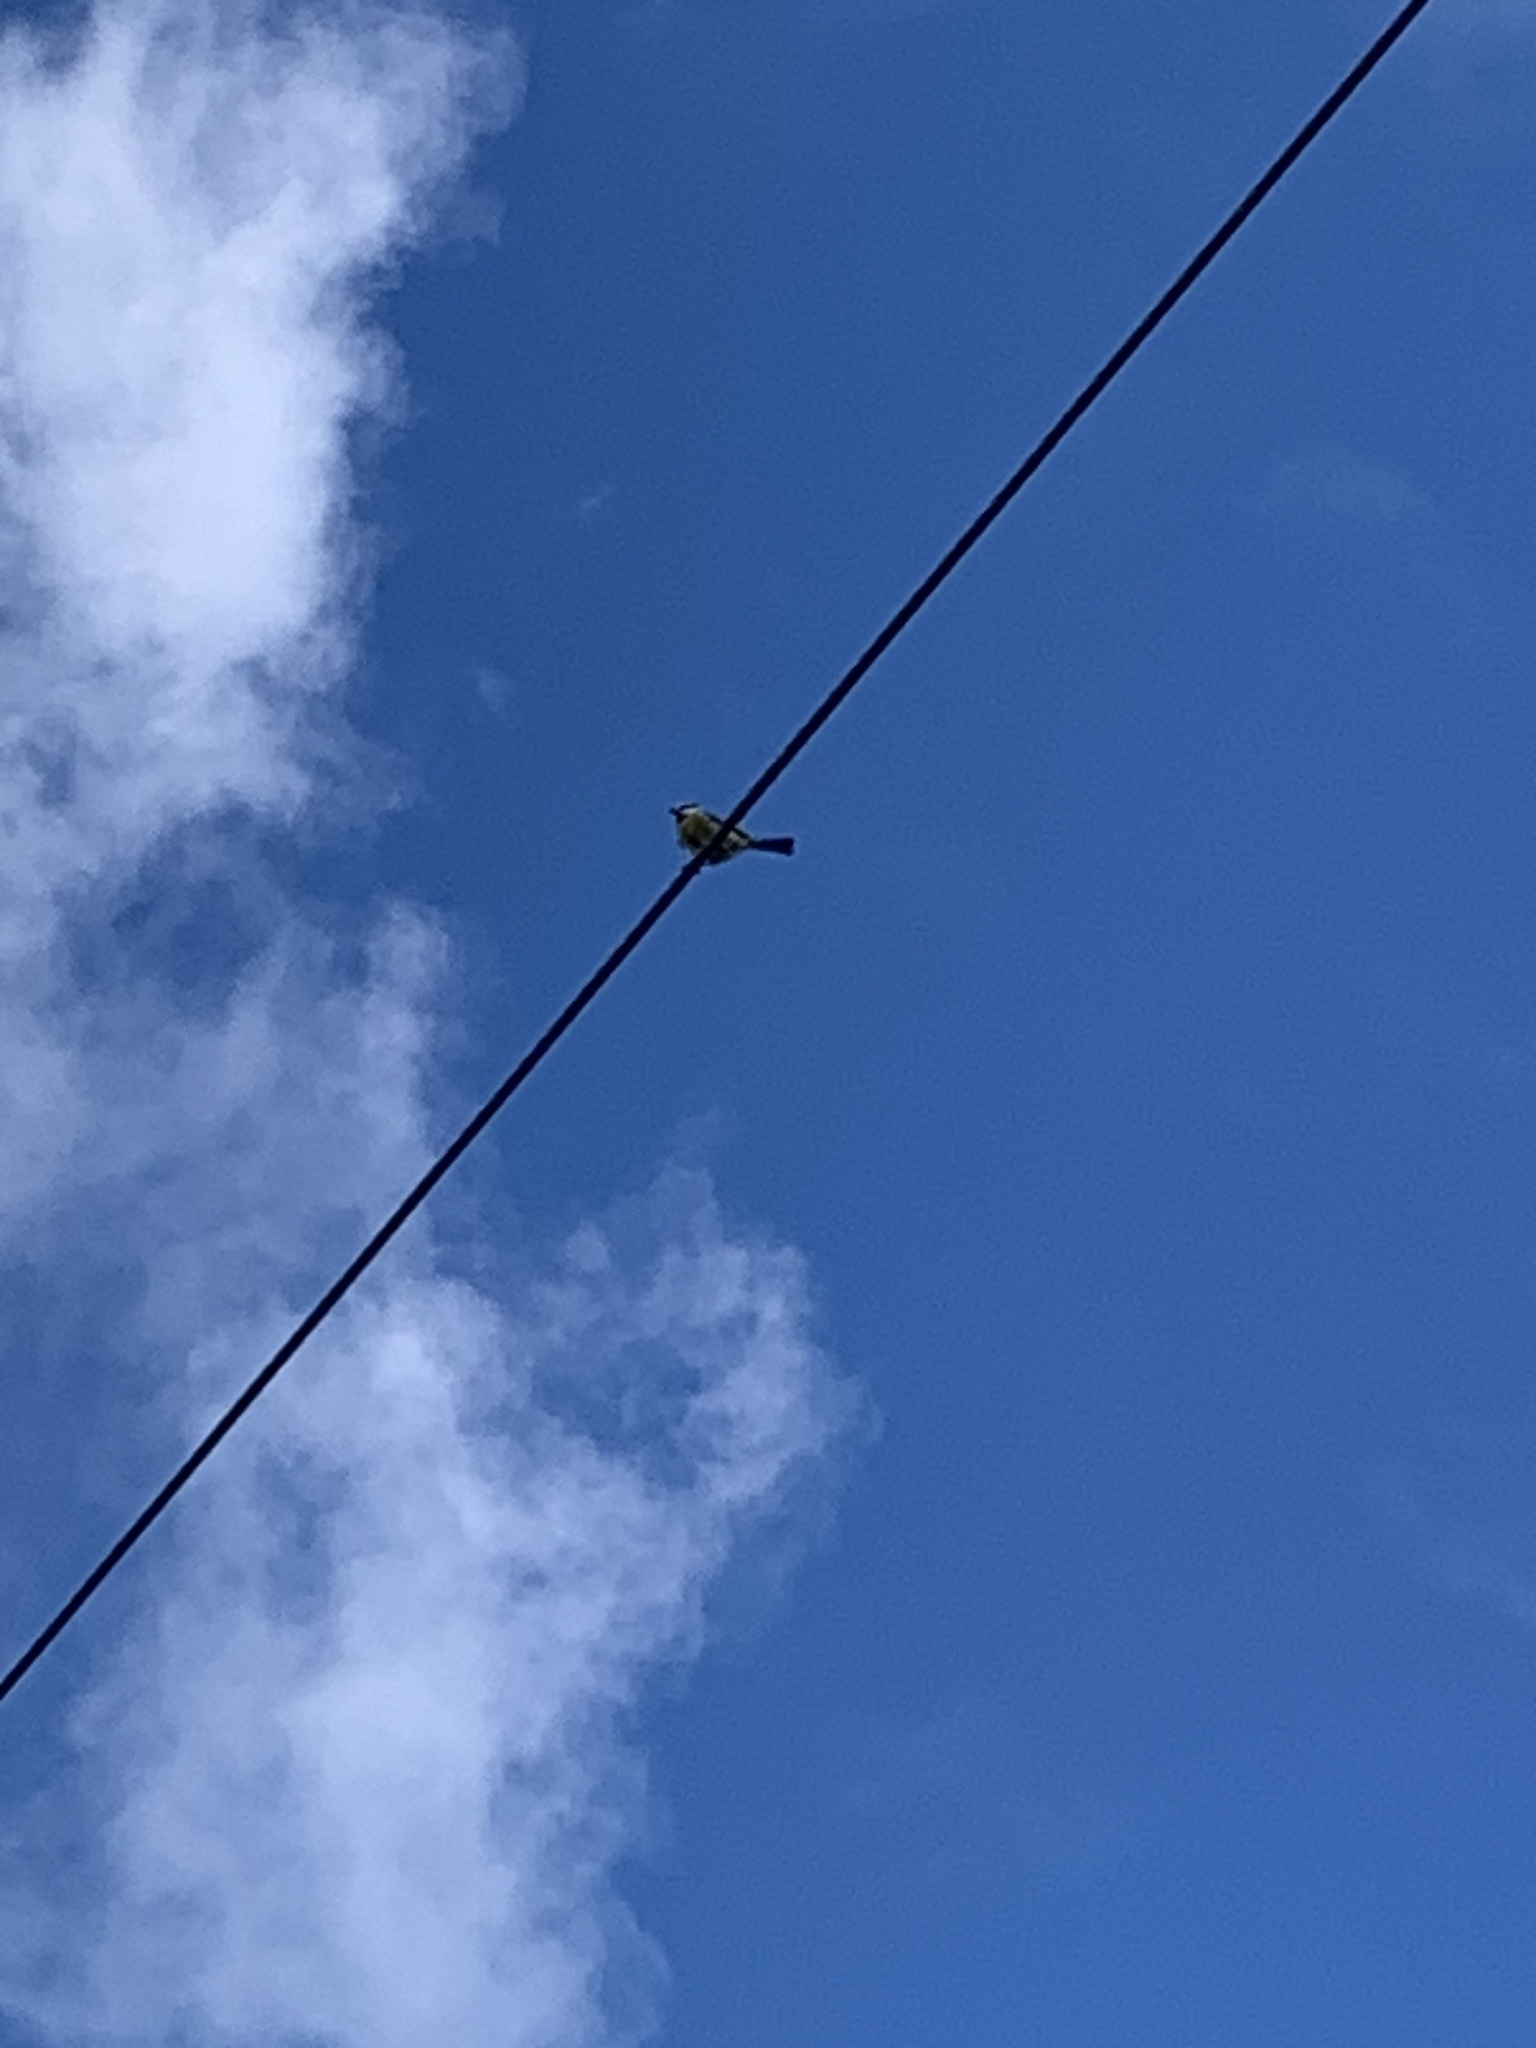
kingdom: Animalia
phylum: Chordata
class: Aves
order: Passeriformes
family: Paridae
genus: Cyanistes
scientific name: Cyanistes caeruleus
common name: Eurasian blue tit
